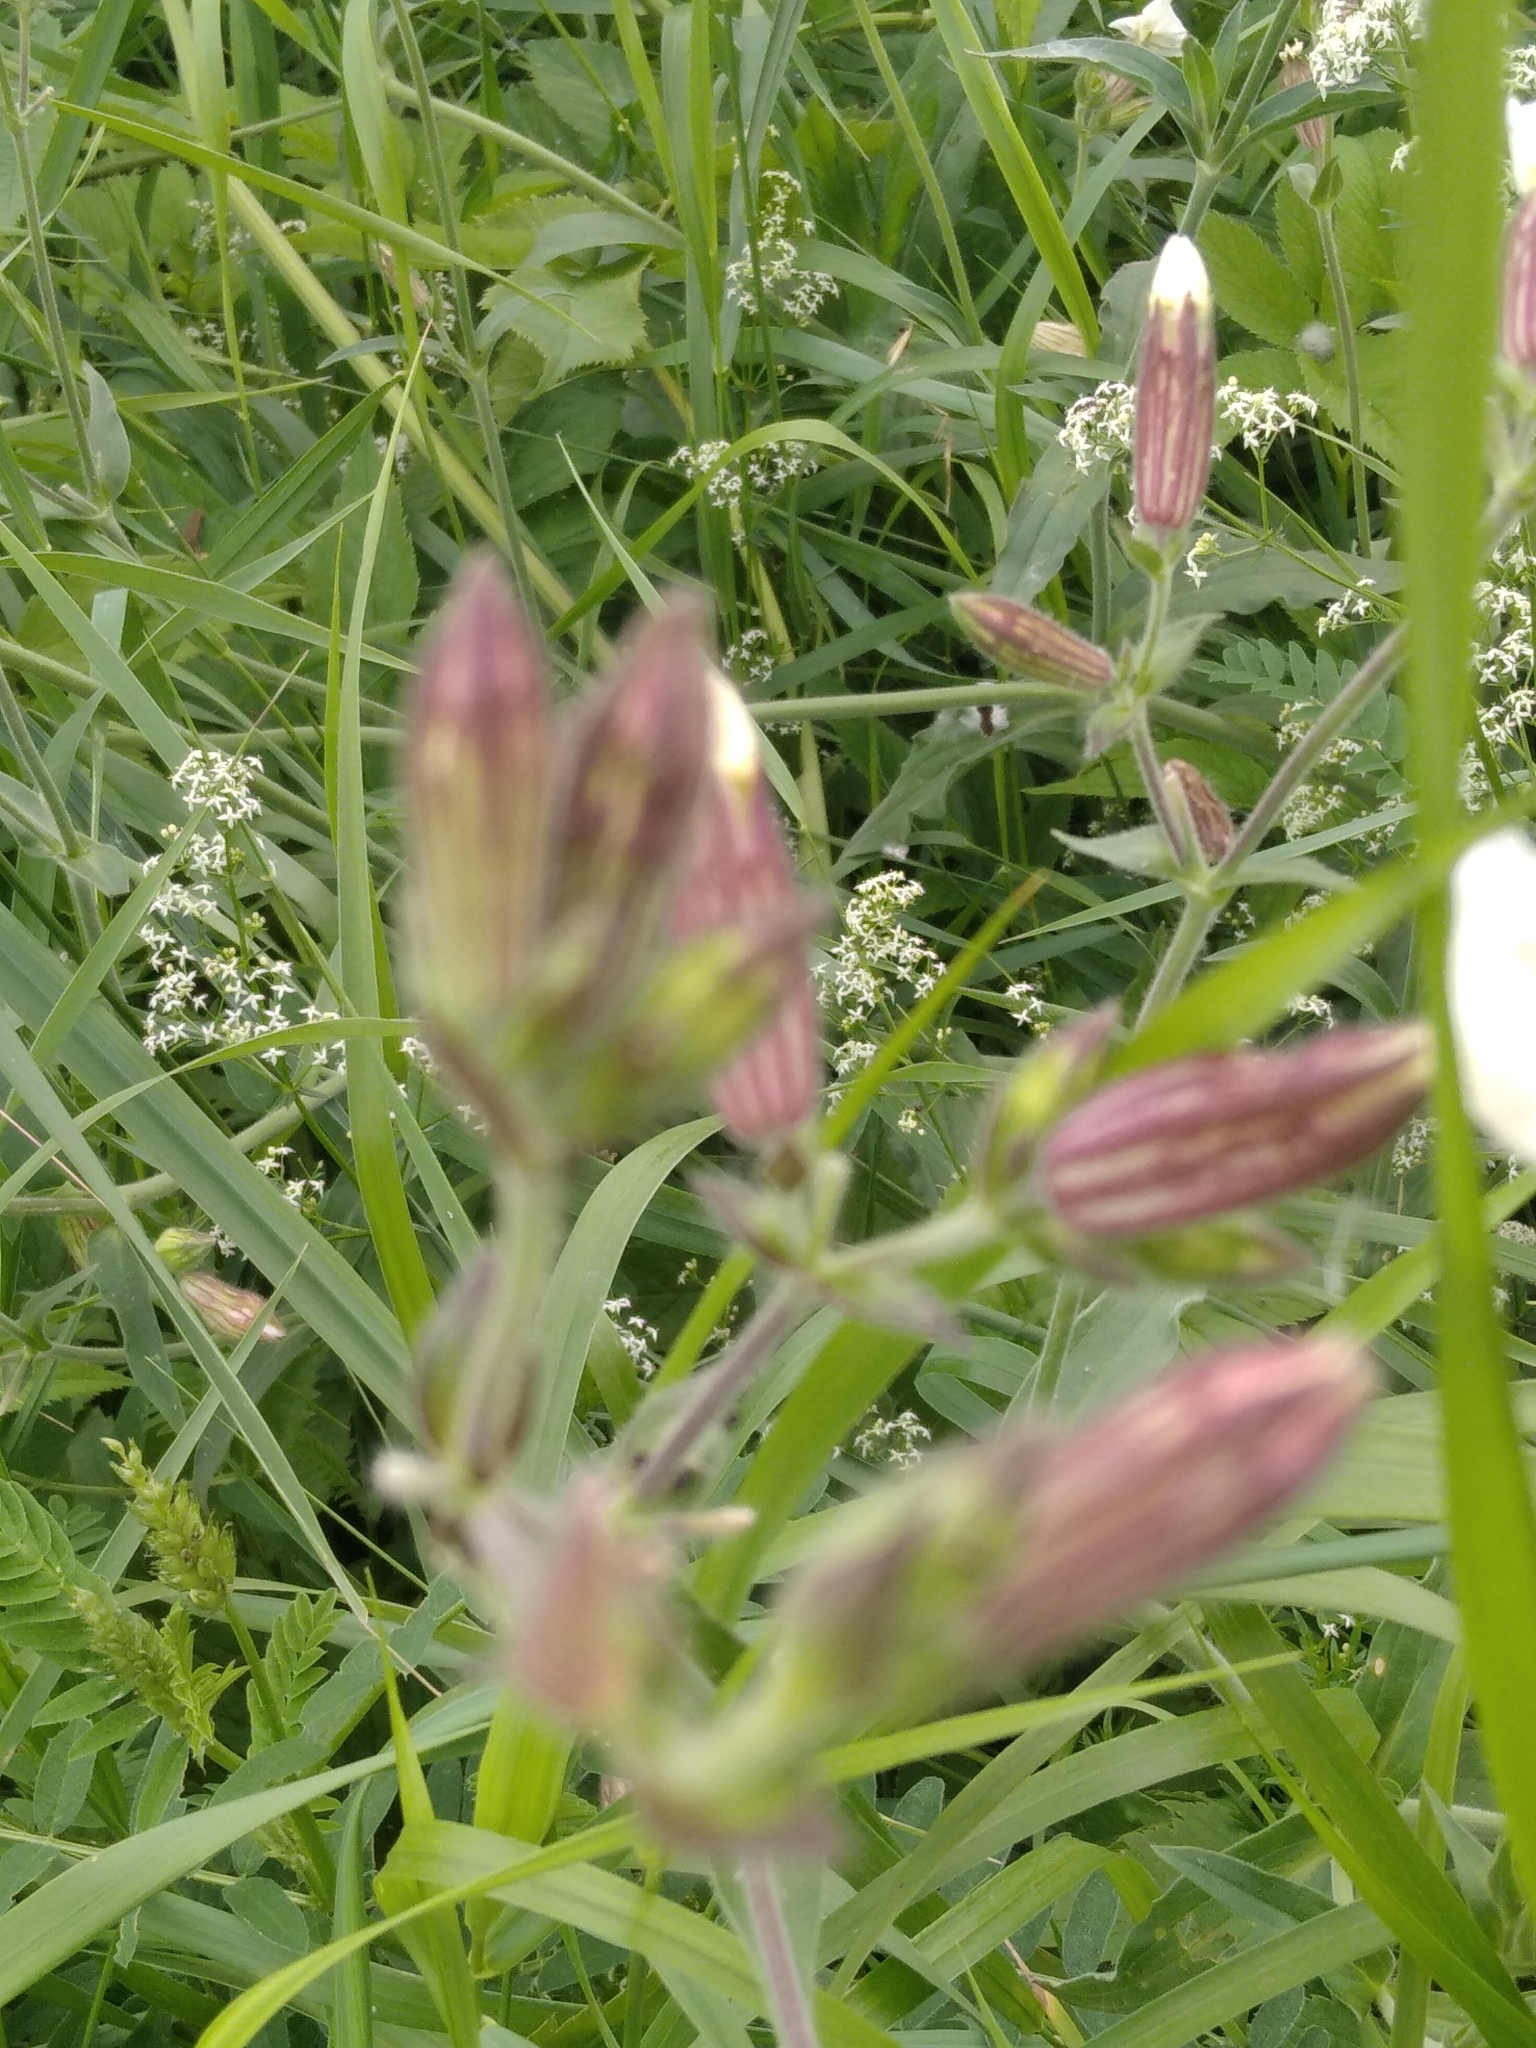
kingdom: Plantae
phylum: Tracheophyta
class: Magnoliopsida
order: Caryophyllales
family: Caryophyllaceae
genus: Silene
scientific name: Silene latifolia
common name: White campion
